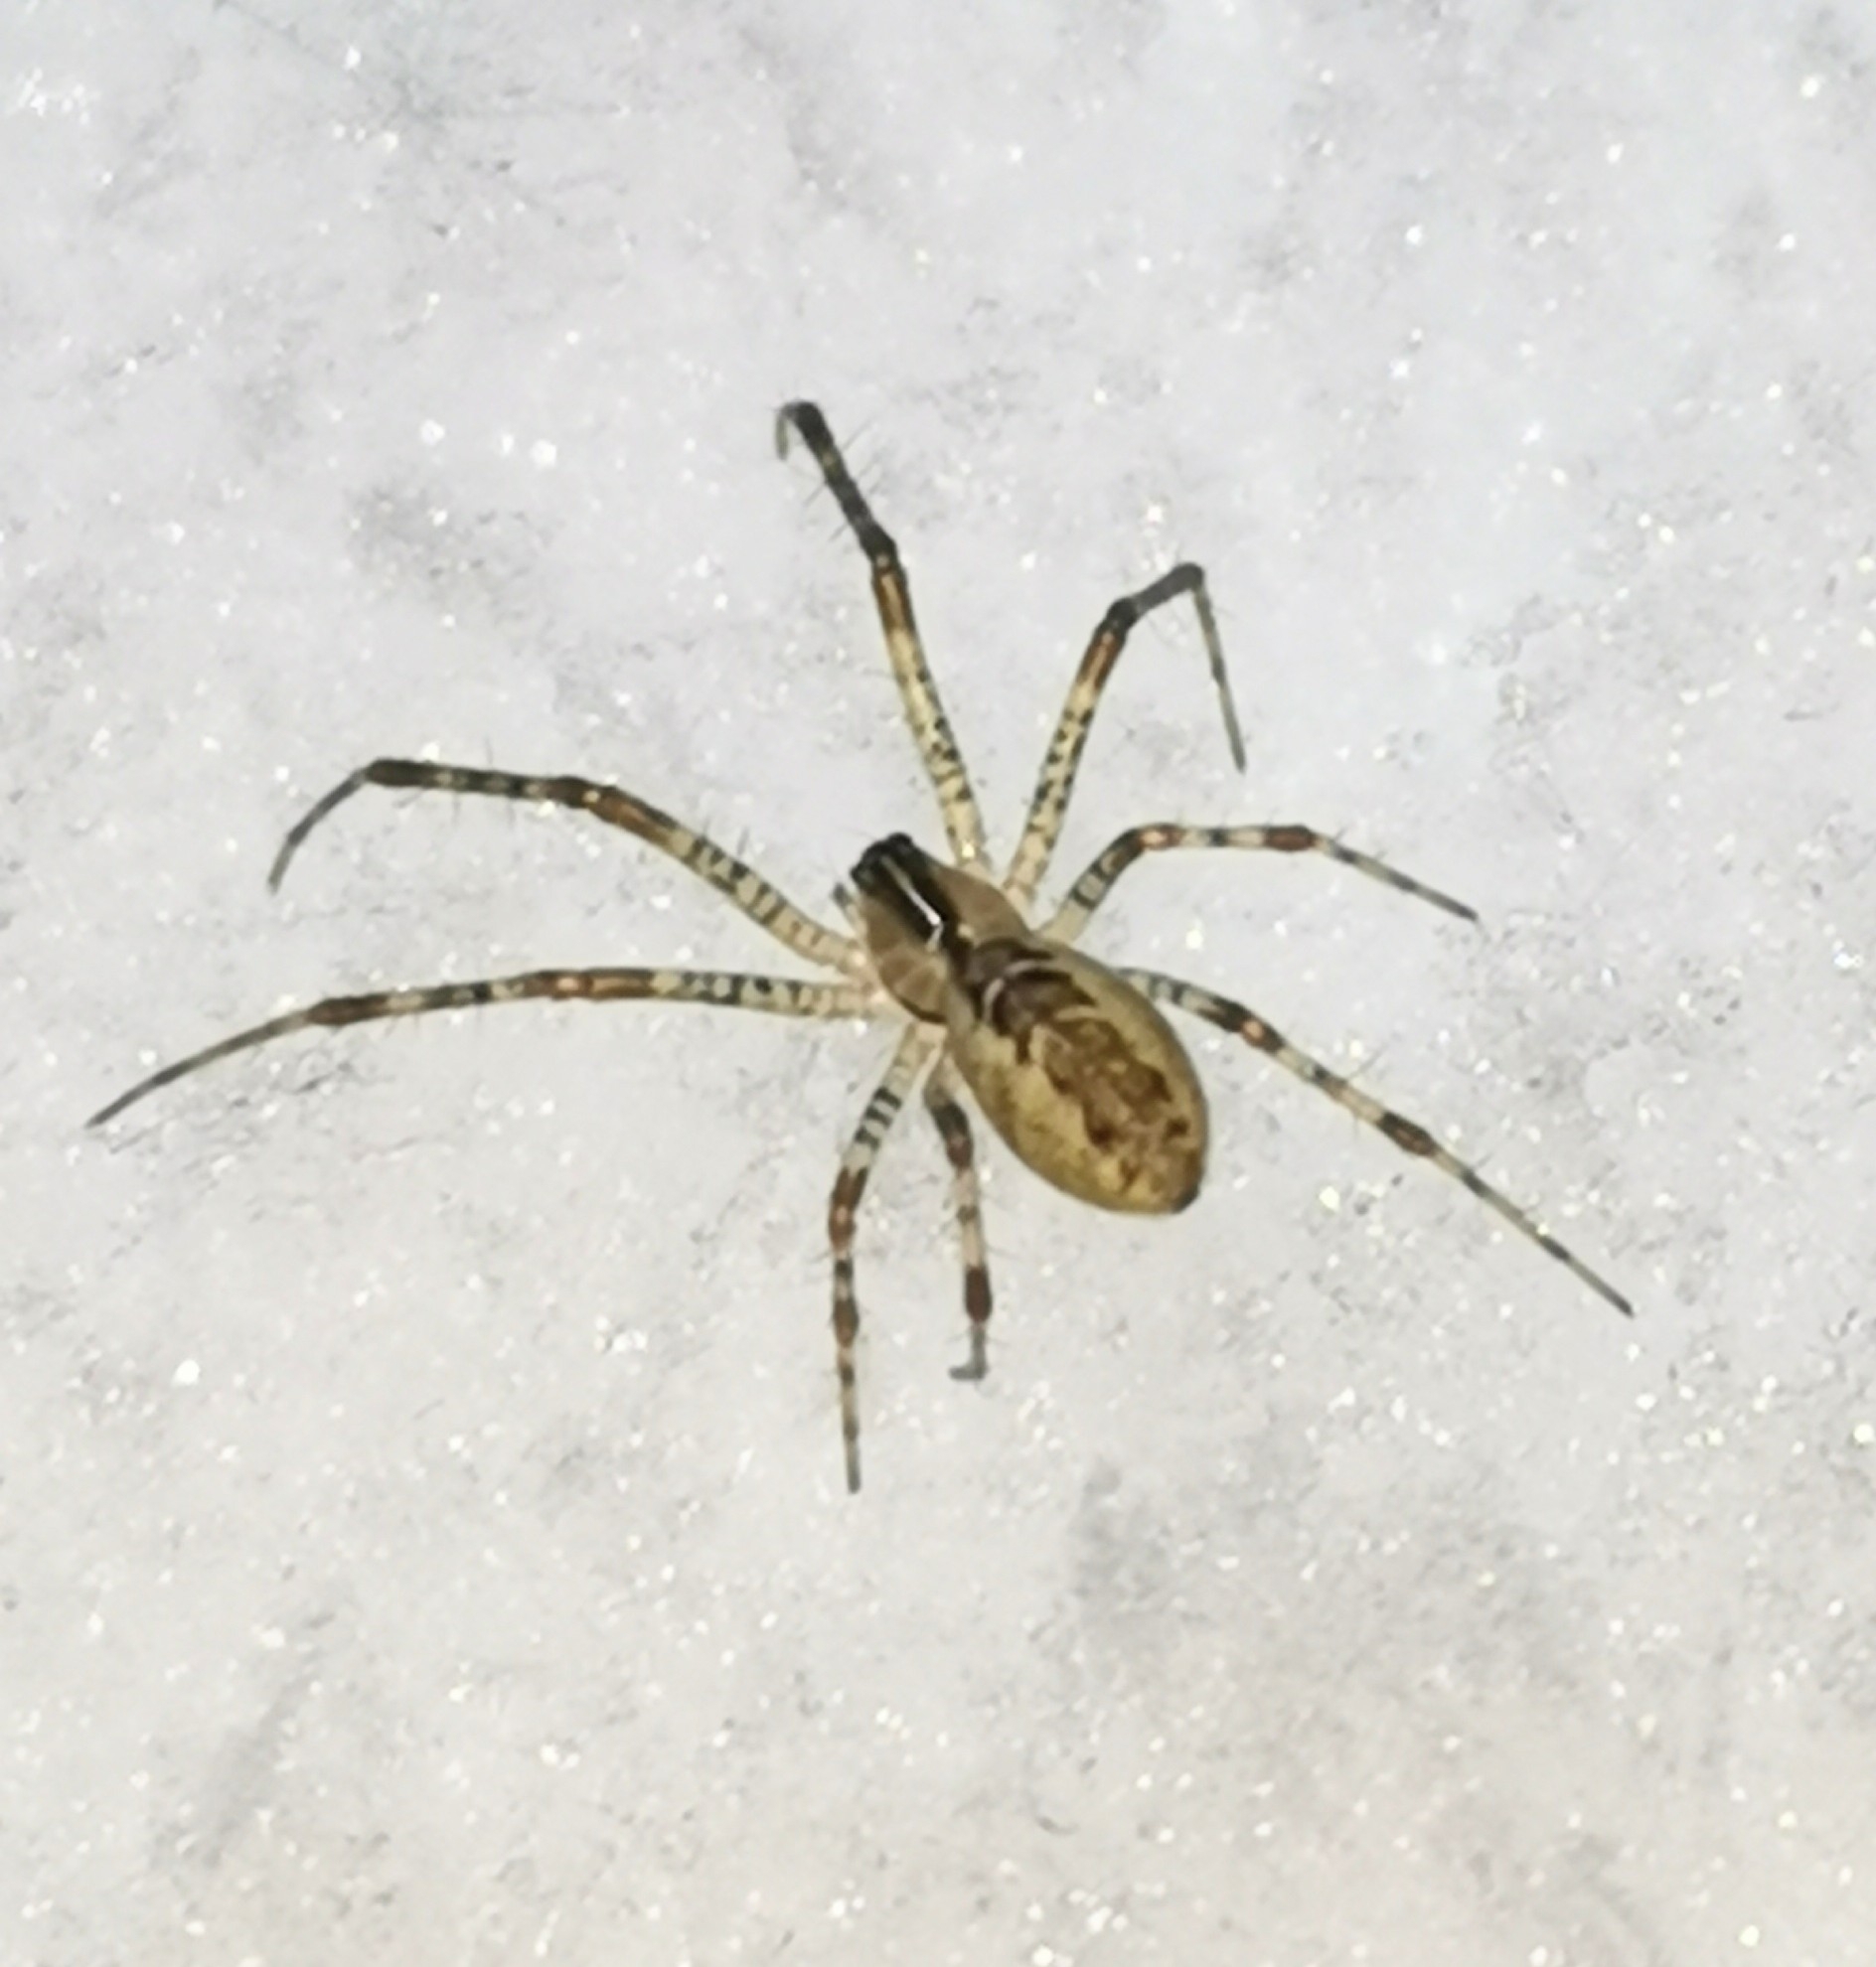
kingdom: Animalia
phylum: Arthropoda
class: Arachnida
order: Araneae
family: Linyphiidae
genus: Pityohyphantes
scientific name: Pityohyphantes phrygianus
